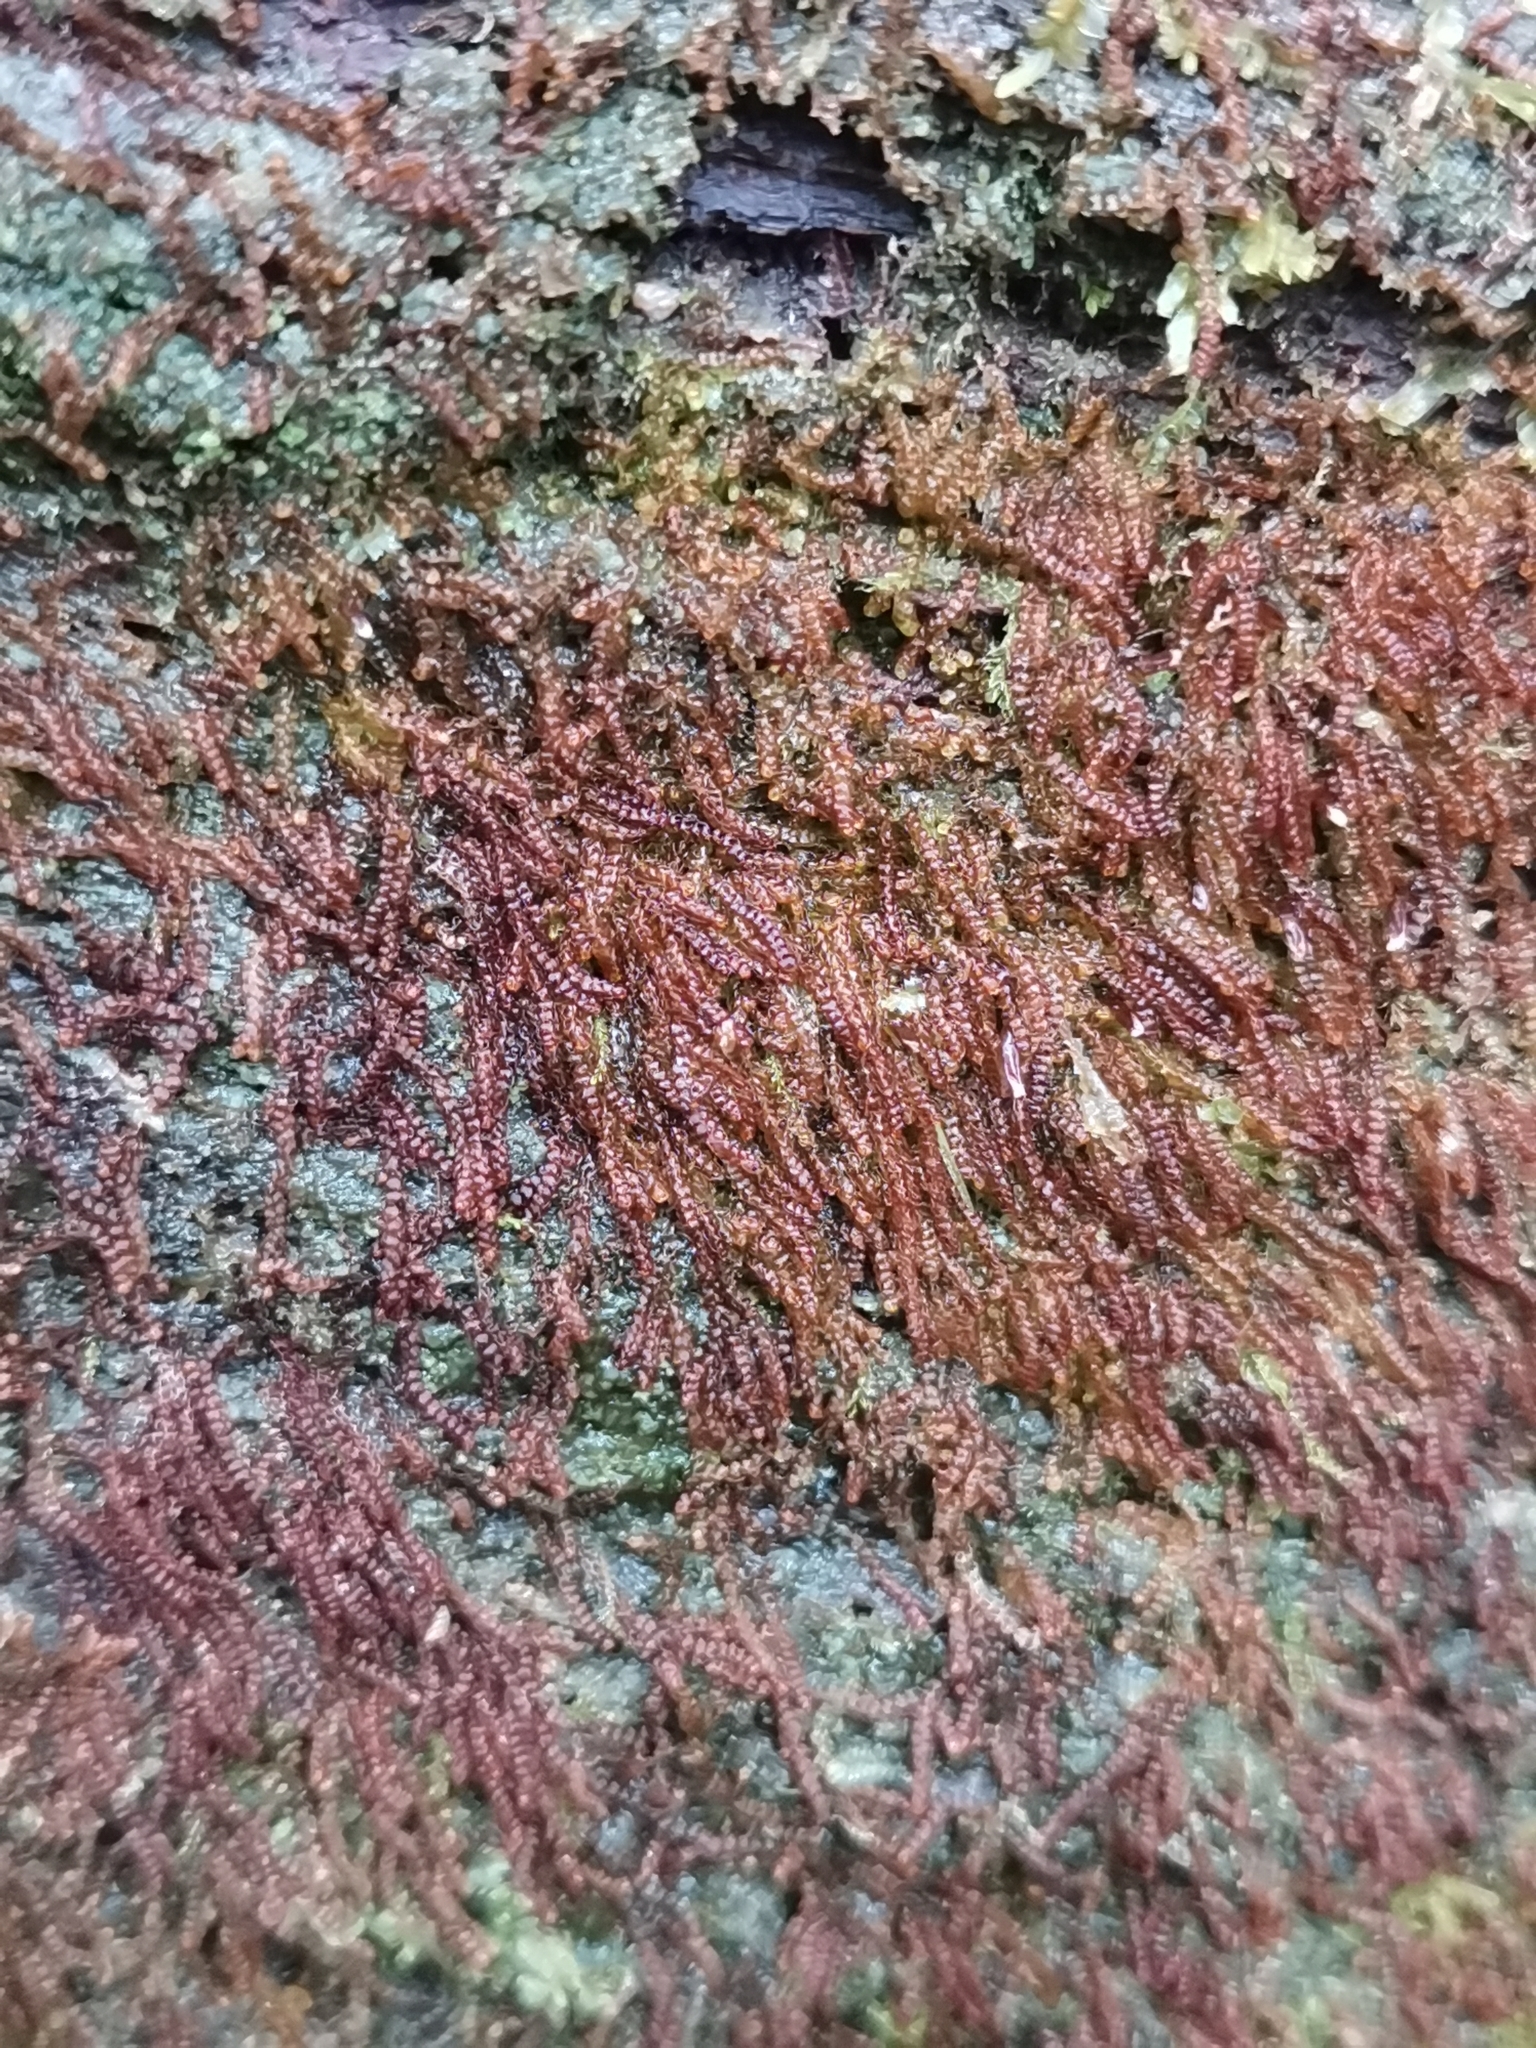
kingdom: Plantae
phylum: Marchantiophyta
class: Jungermanniopsida
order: Jungermanniales
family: Cephaloziaceae
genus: Nowellia
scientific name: Nowellia curvifolia
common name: Wood rustwort
